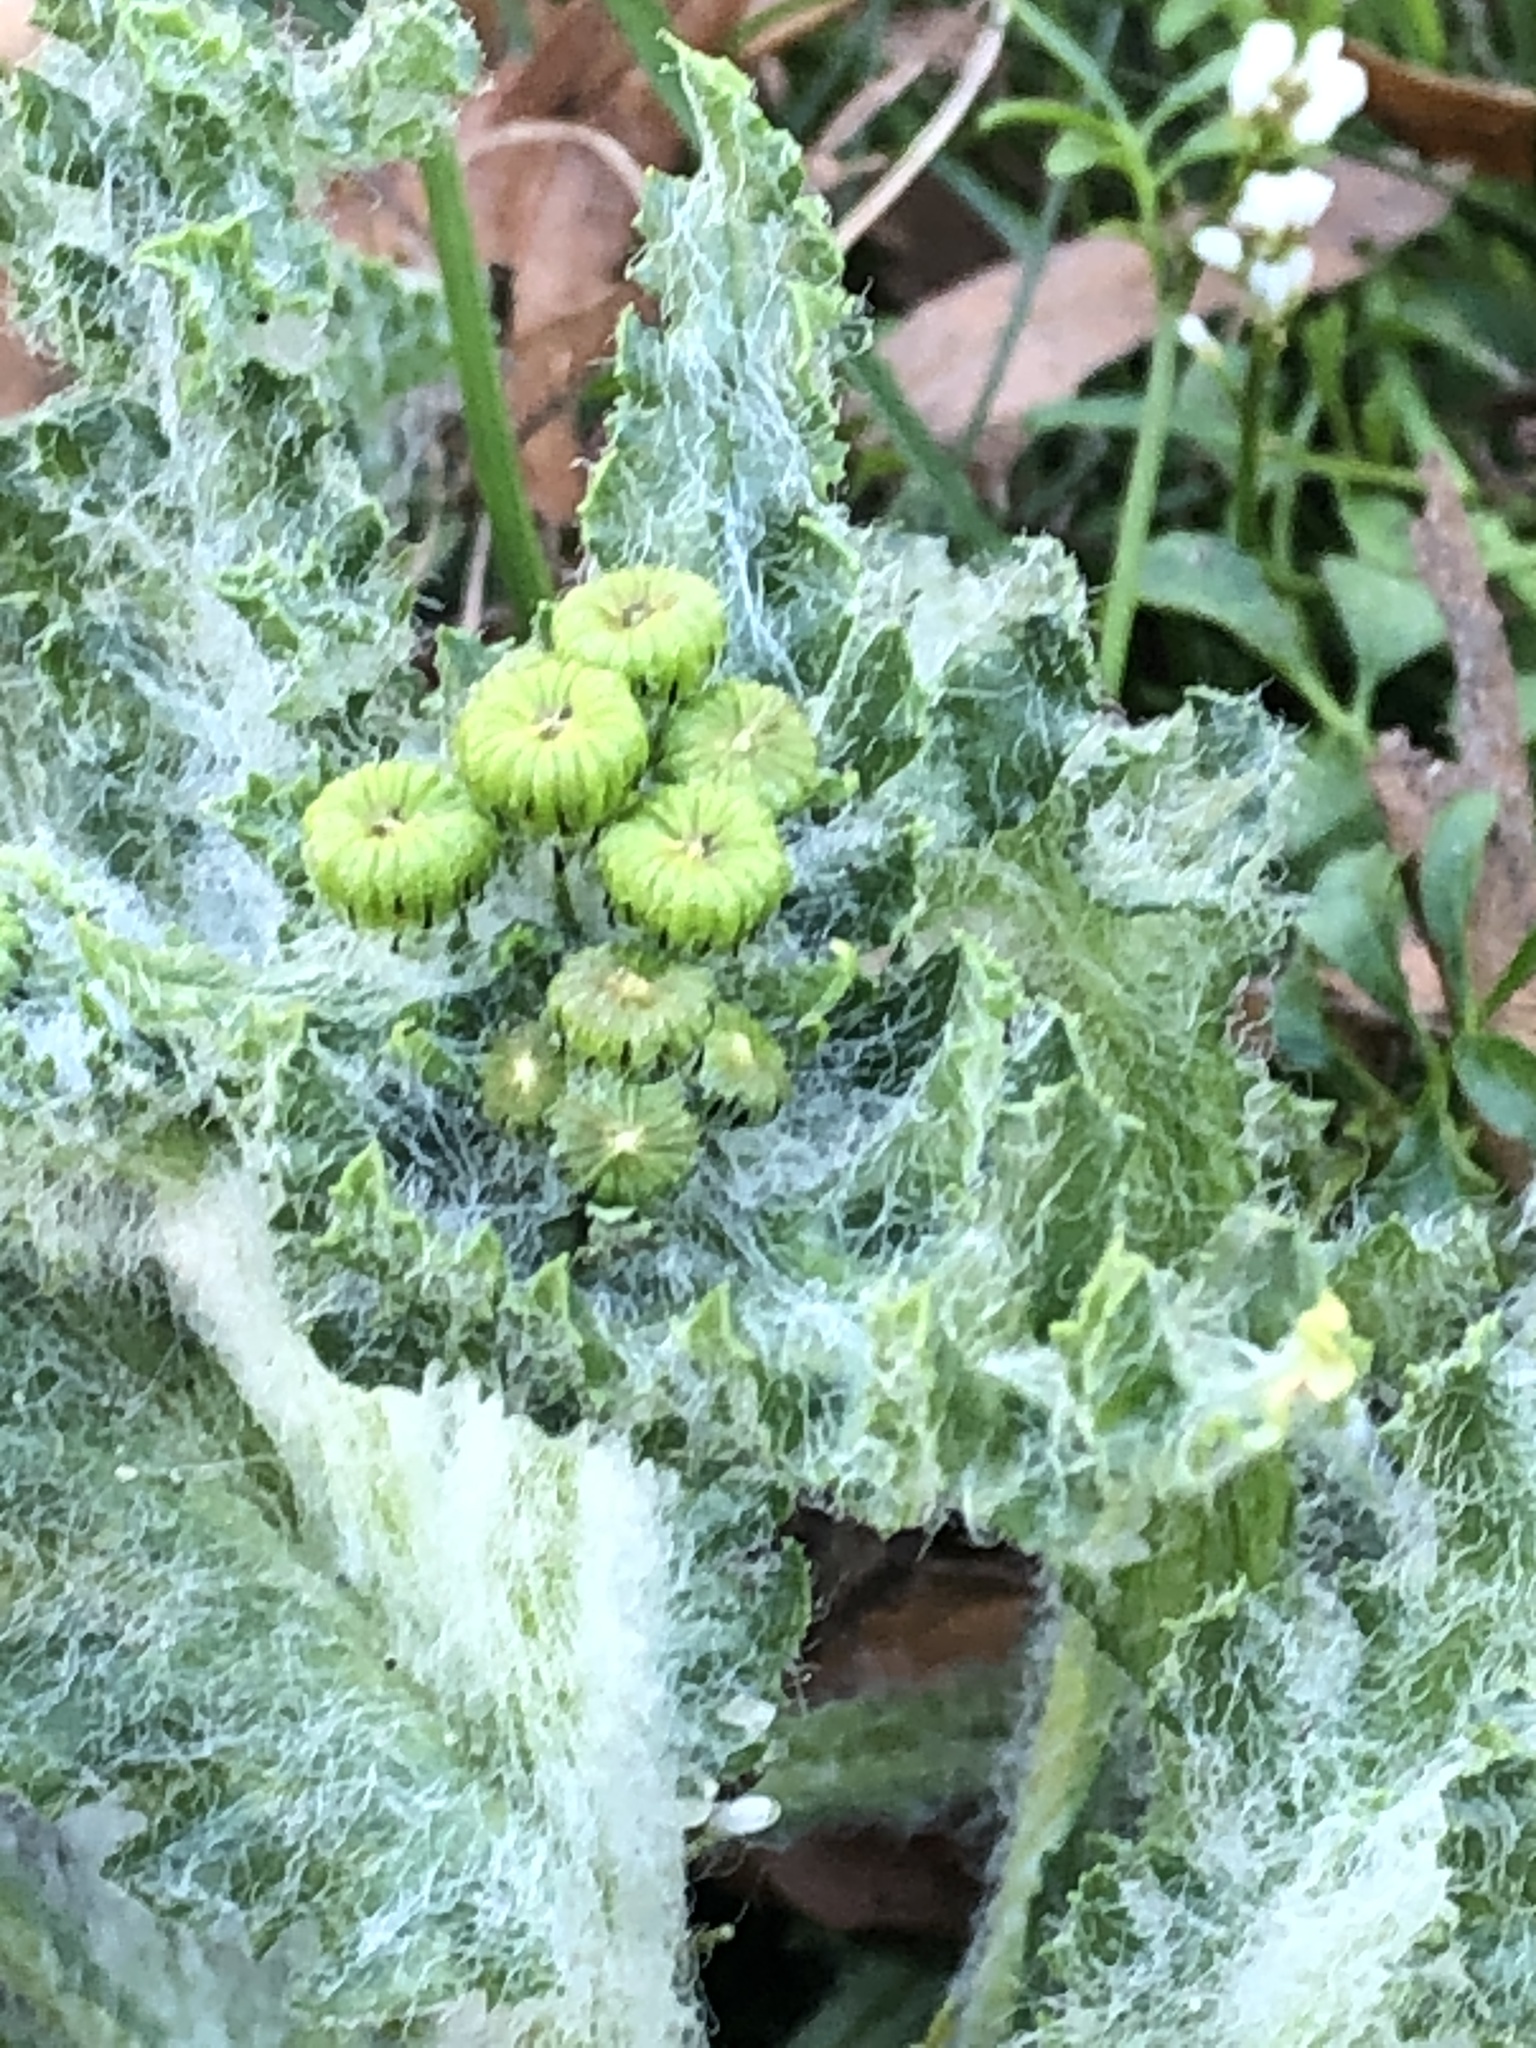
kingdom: Plantae
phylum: Tracheophyta
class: Magnoliopsida
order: Asterales
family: Asteraceae
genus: Senecio
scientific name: Senecio vernalis
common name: Eastern groundsel
